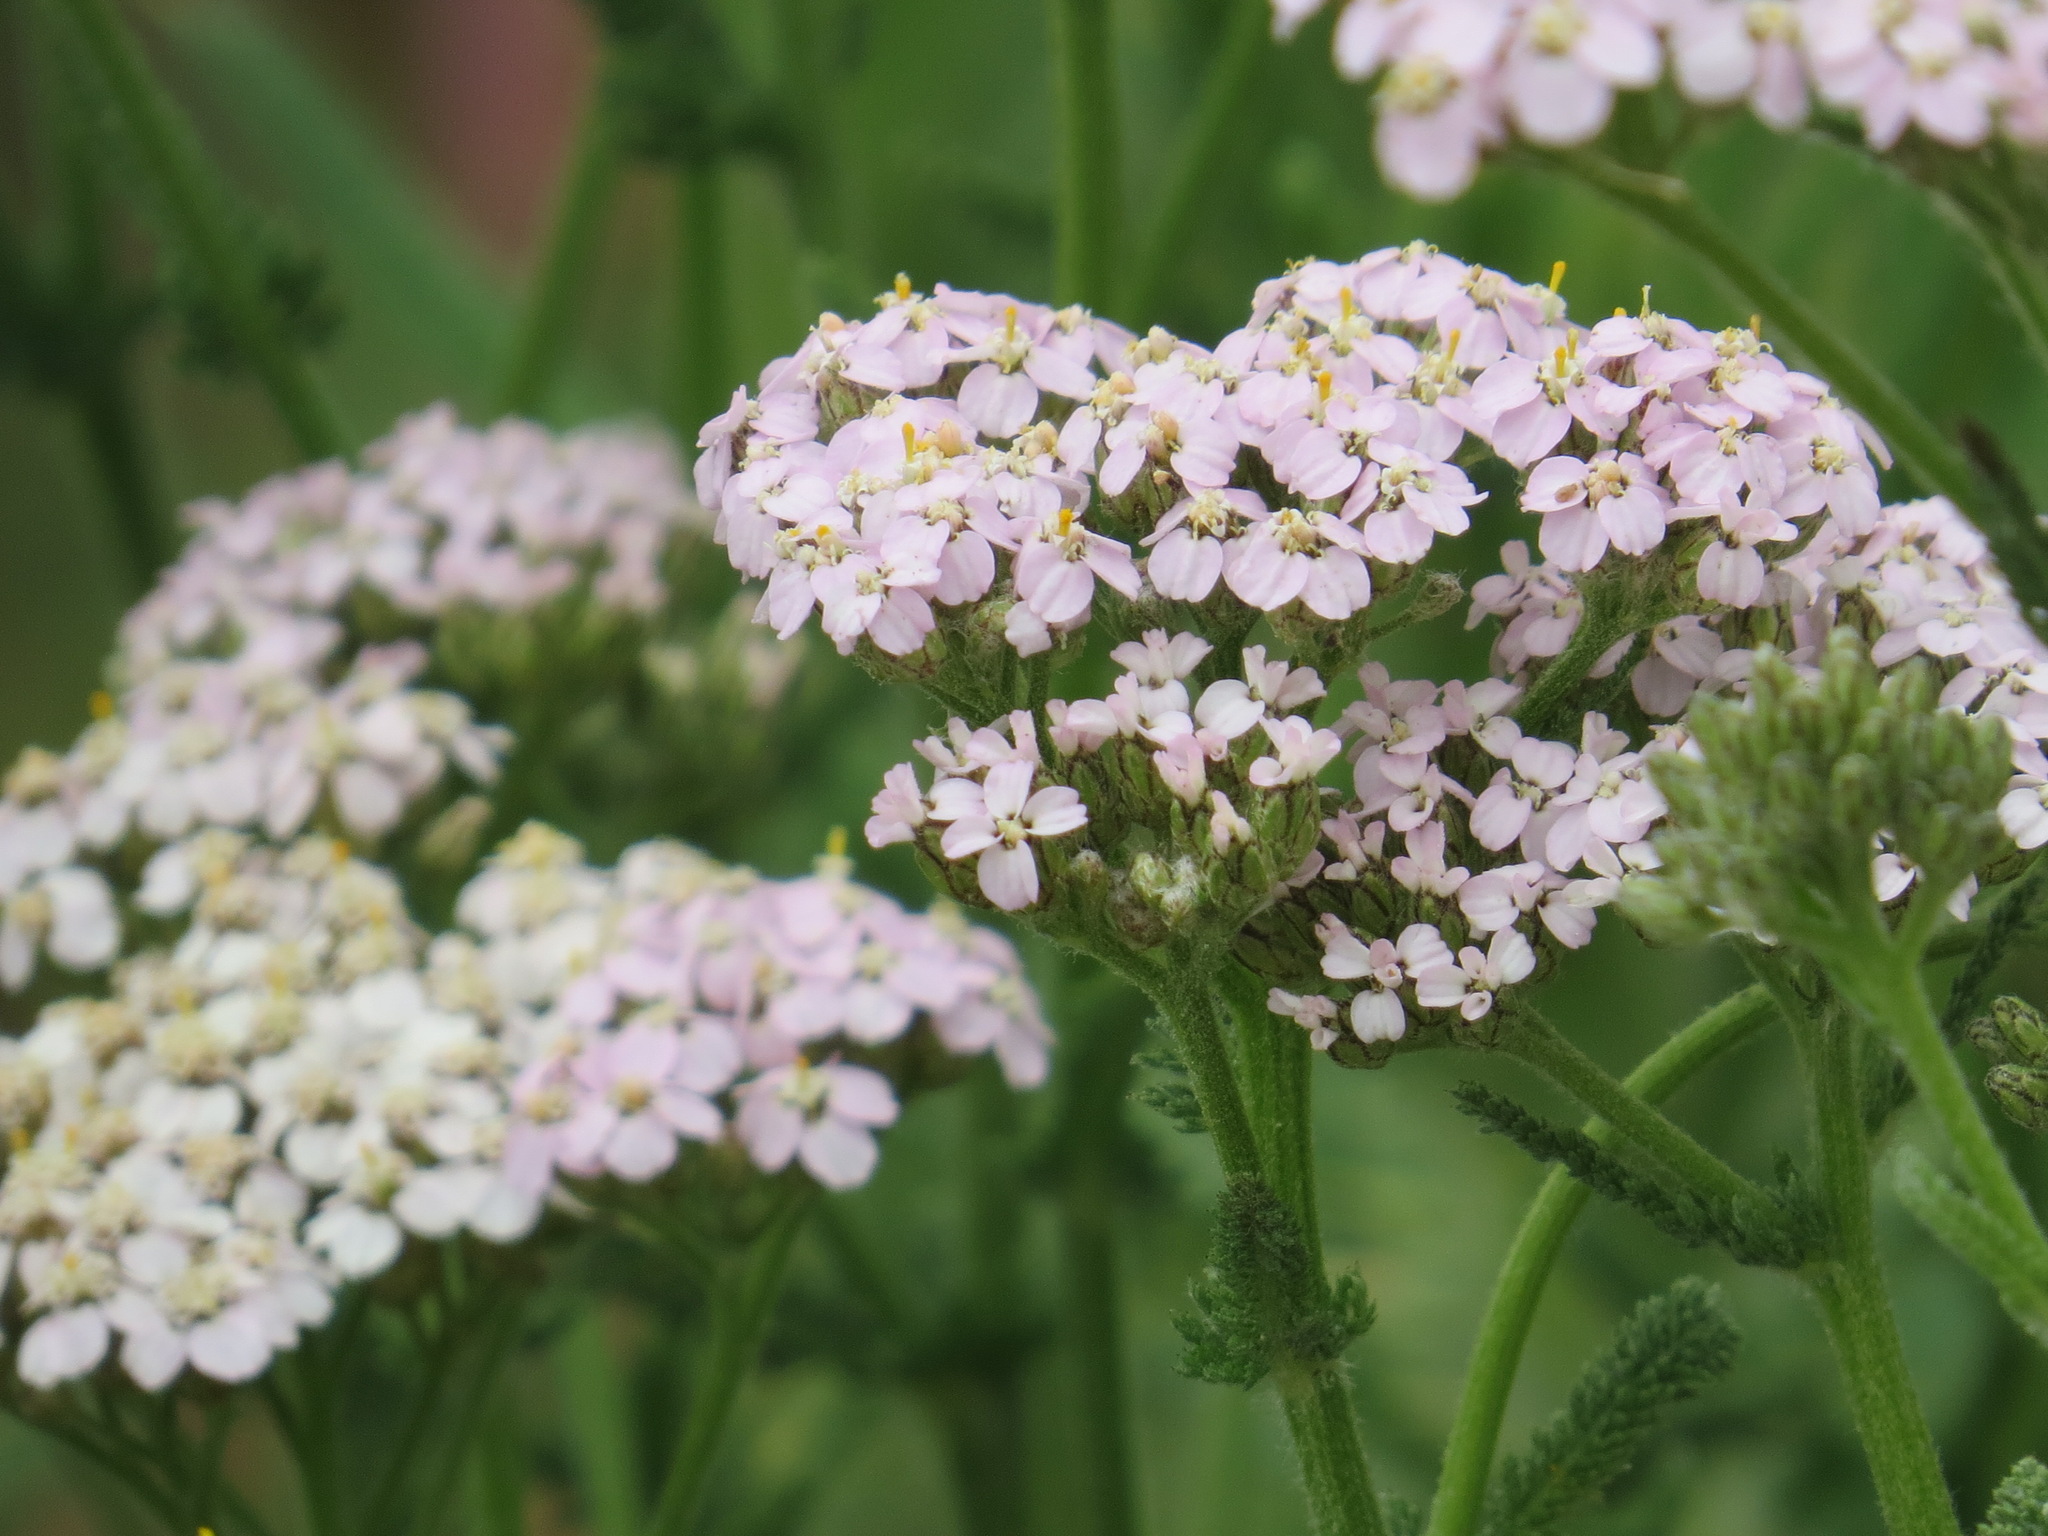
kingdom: Plantae
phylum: Tracheophyta
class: Magnoliopsida
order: Asterales
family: Asteraceae
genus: Achillea
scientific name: Achillea millefolium
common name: Yarrow
